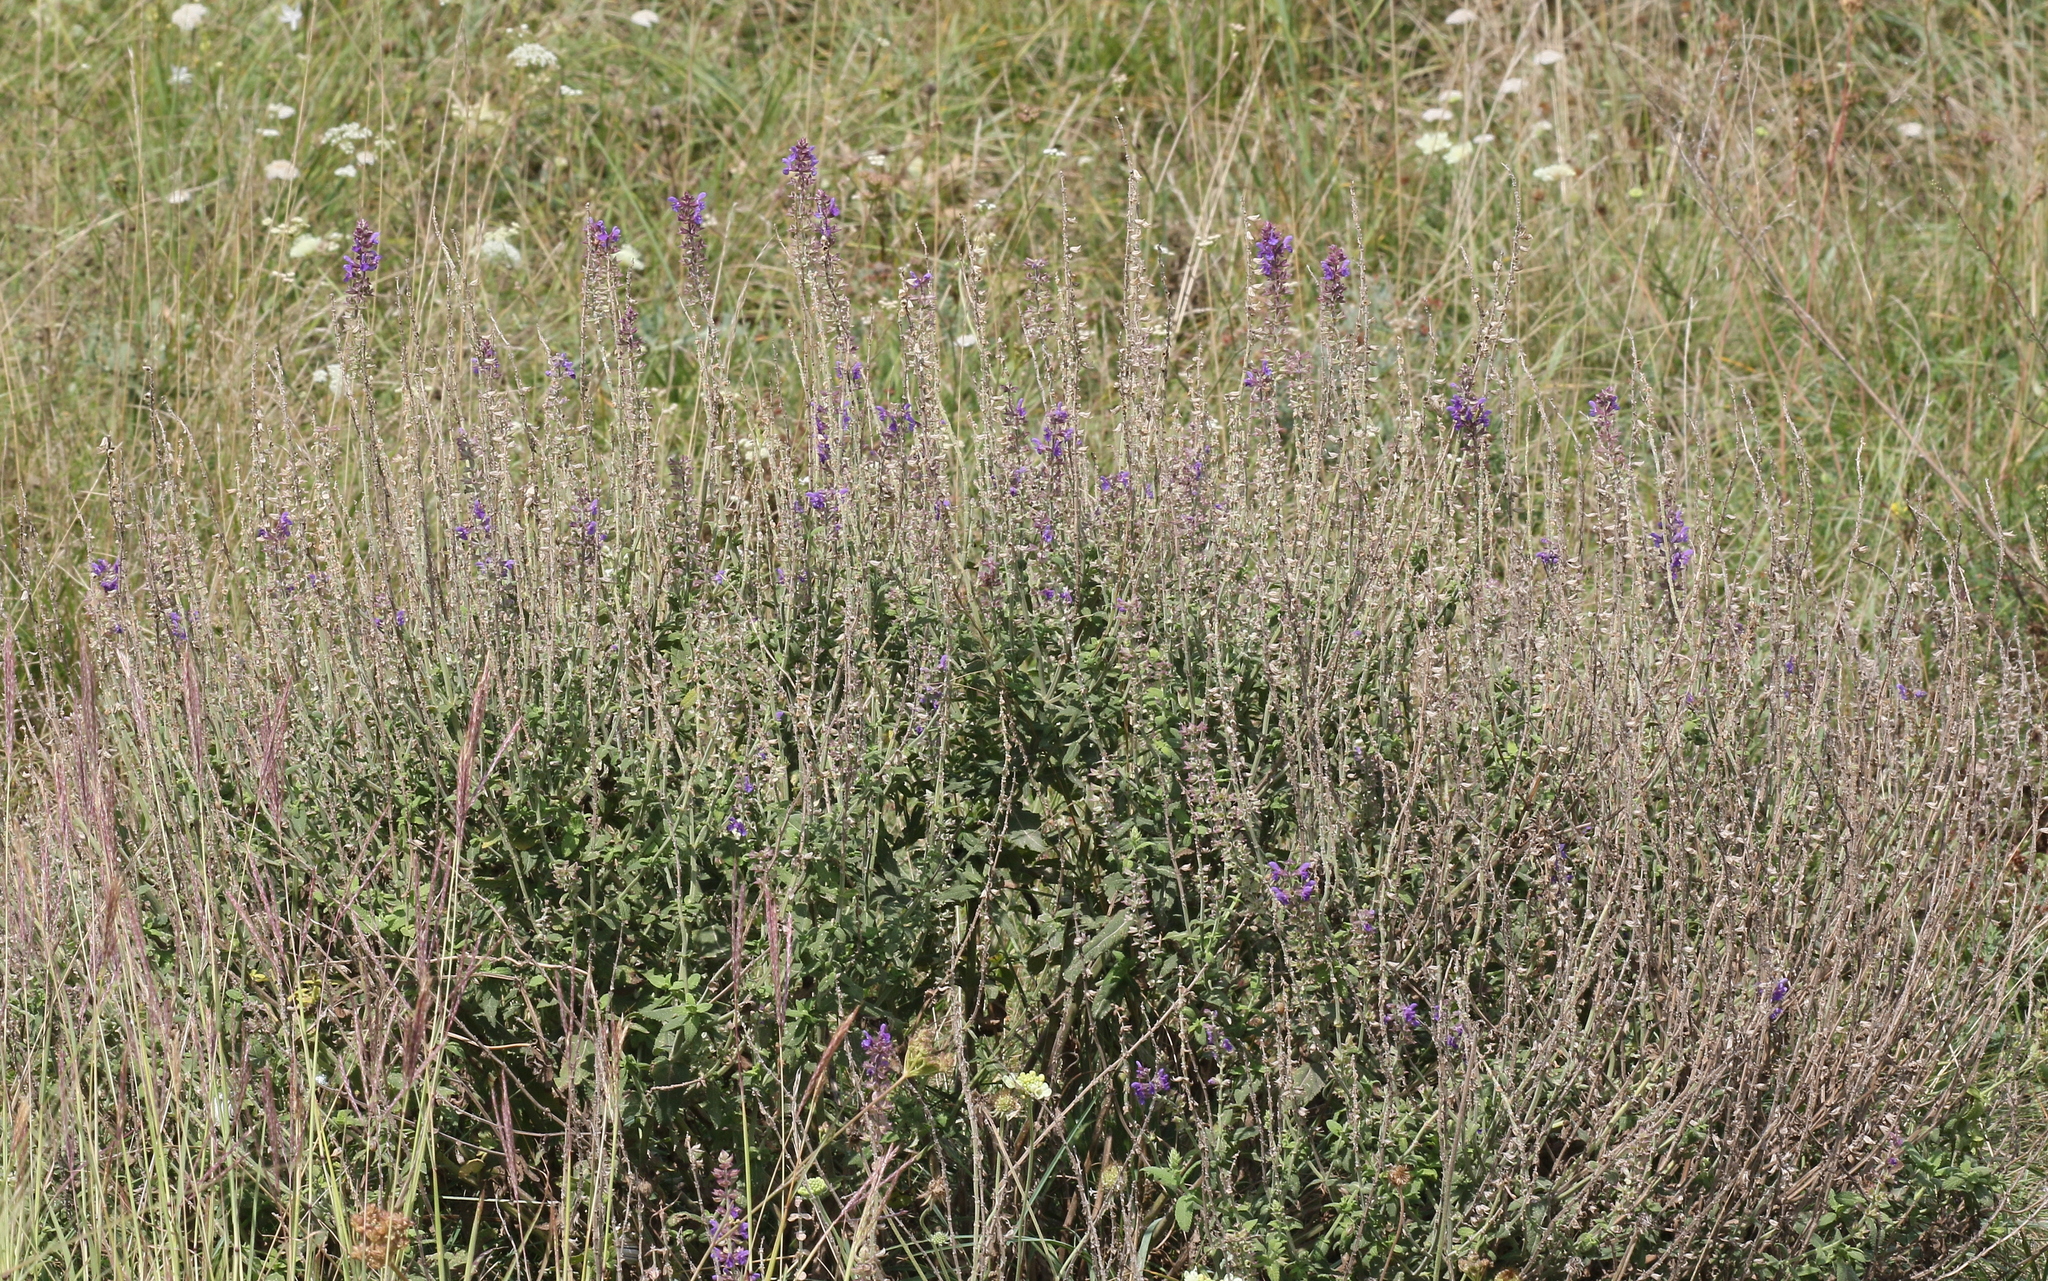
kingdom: Plantae
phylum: Tracheophyta
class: Magnoliopsida
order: Lamiales
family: Lamiaceae
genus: Salvia
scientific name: Salvia nemorosa
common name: Balkan clary
